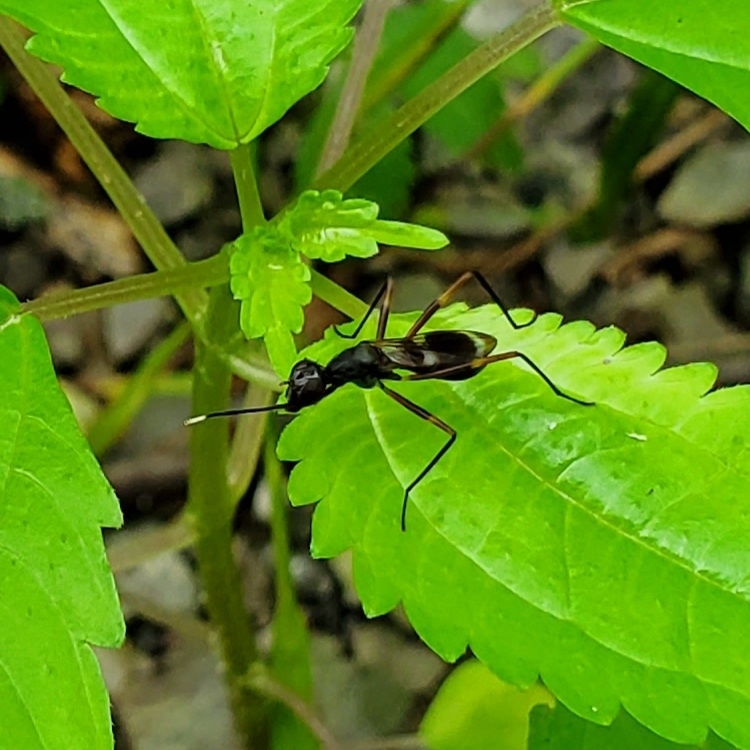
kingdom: Animalia
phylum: Arthropoda
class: Insecta
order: Diptera
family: Micropezidae
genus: Taeniaptera
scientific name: Taeniaptera trivittata
